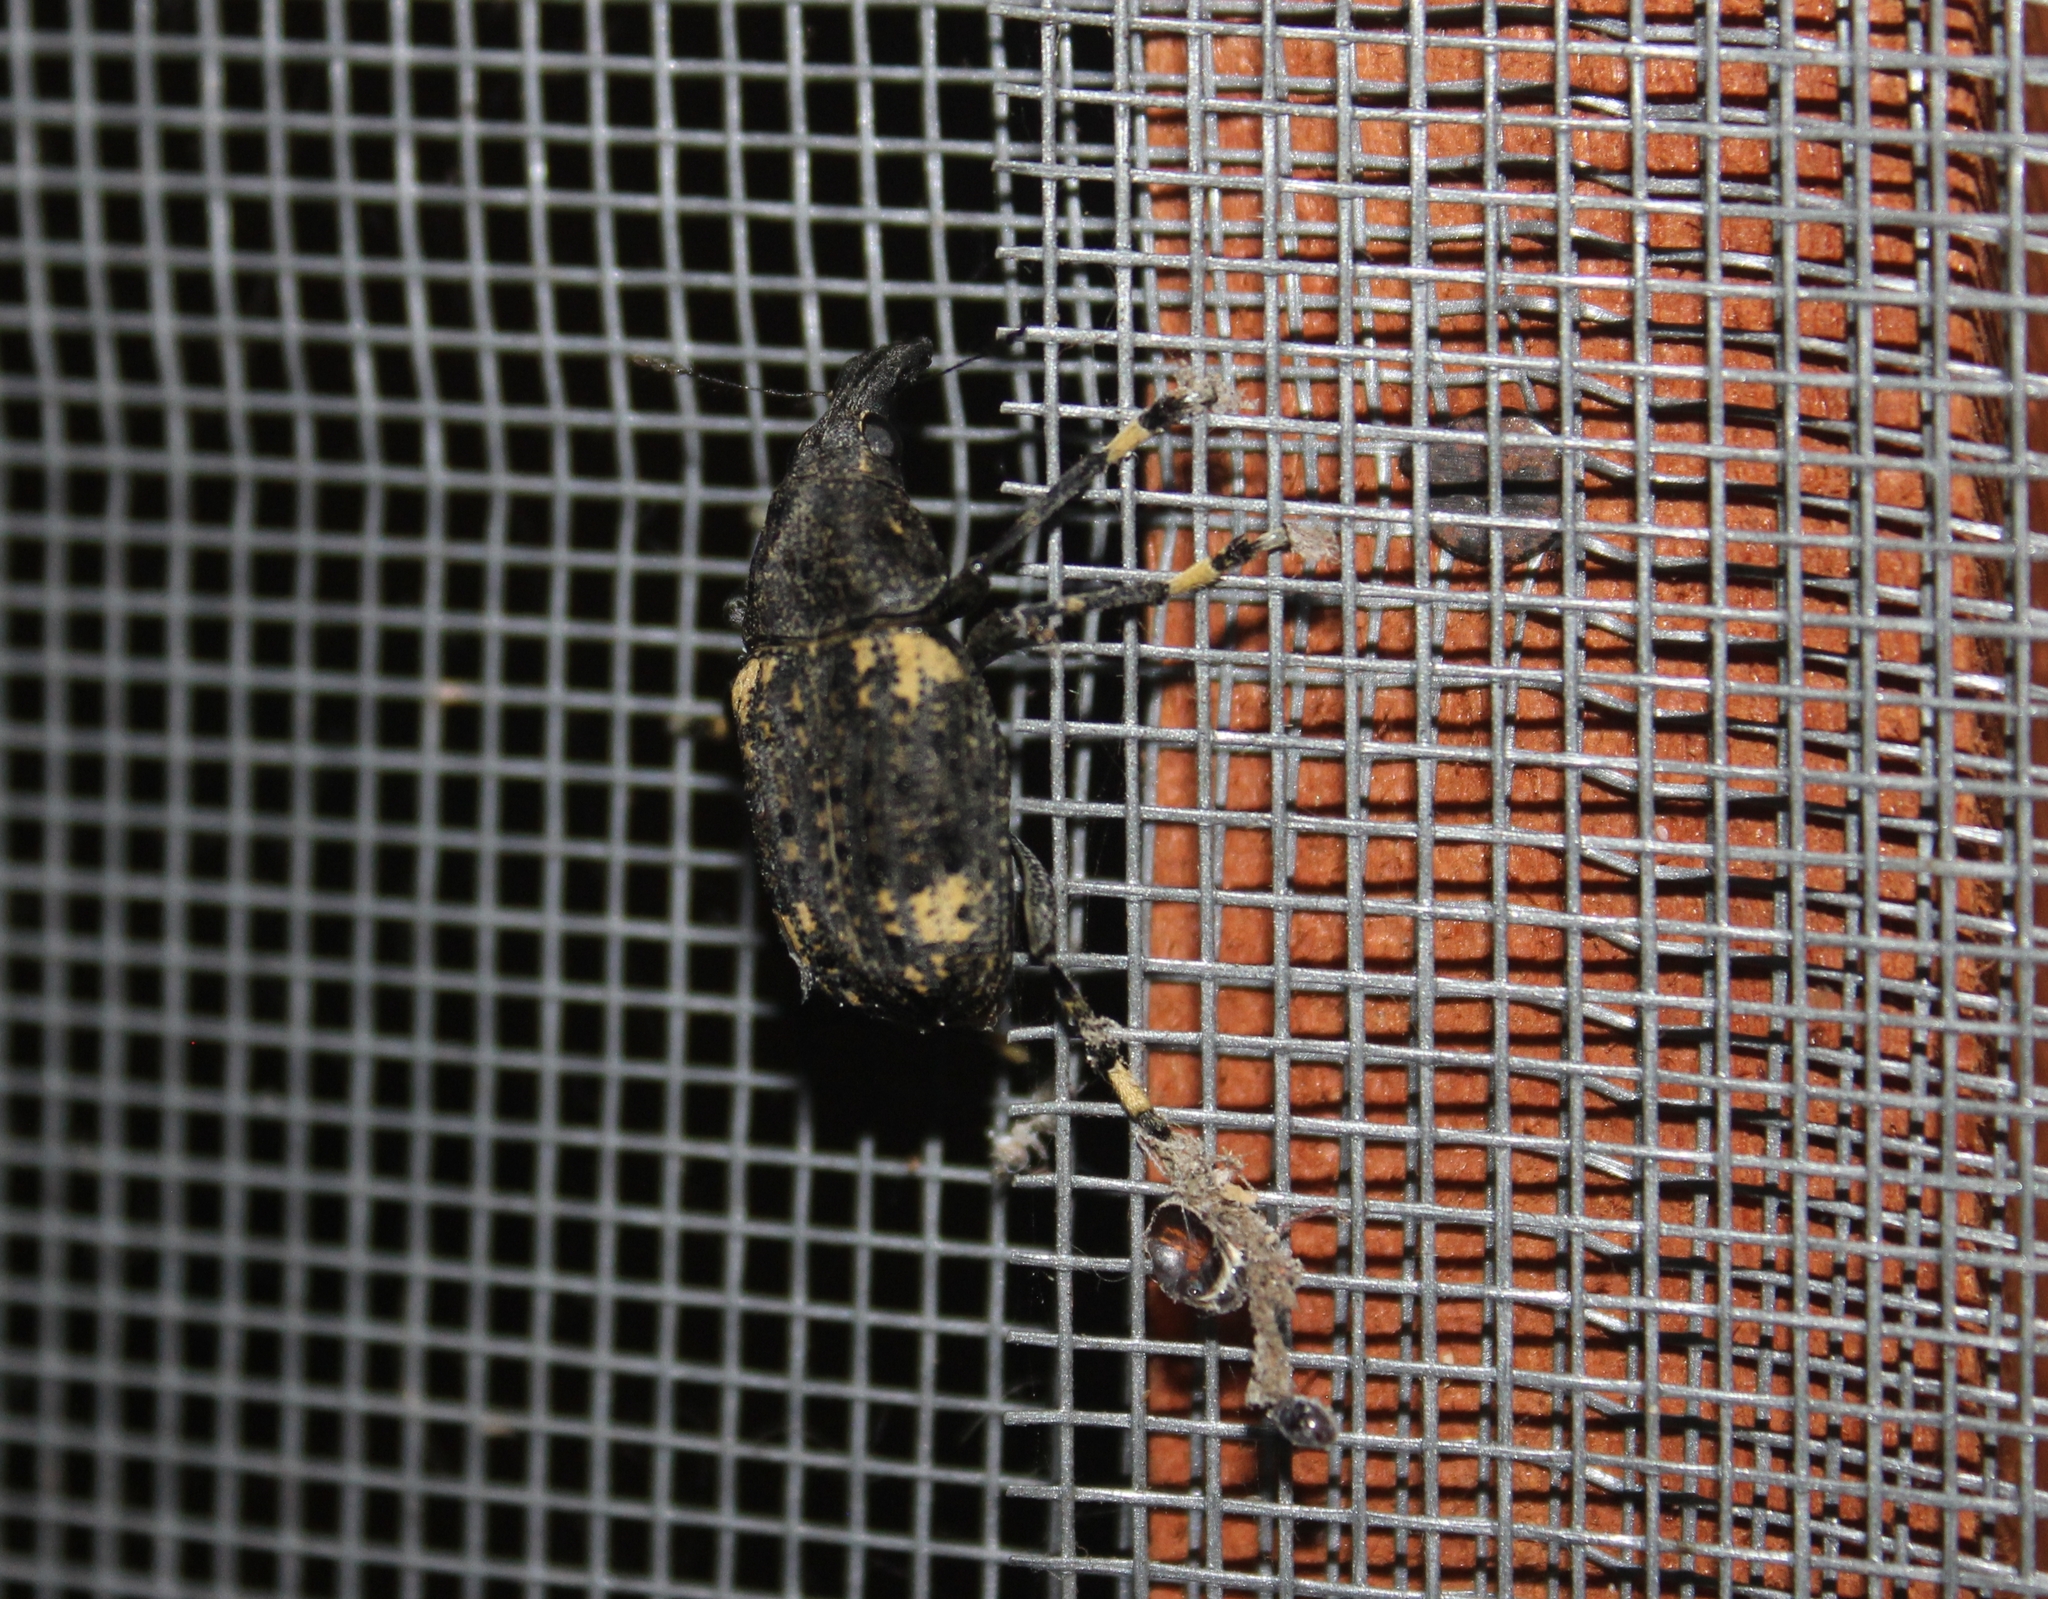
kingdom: Animalia
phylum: Arthropoda
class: Insecta
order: Coleoptera
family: Anthribidae
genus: Stenocerus
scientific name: Stenocerus longulus
